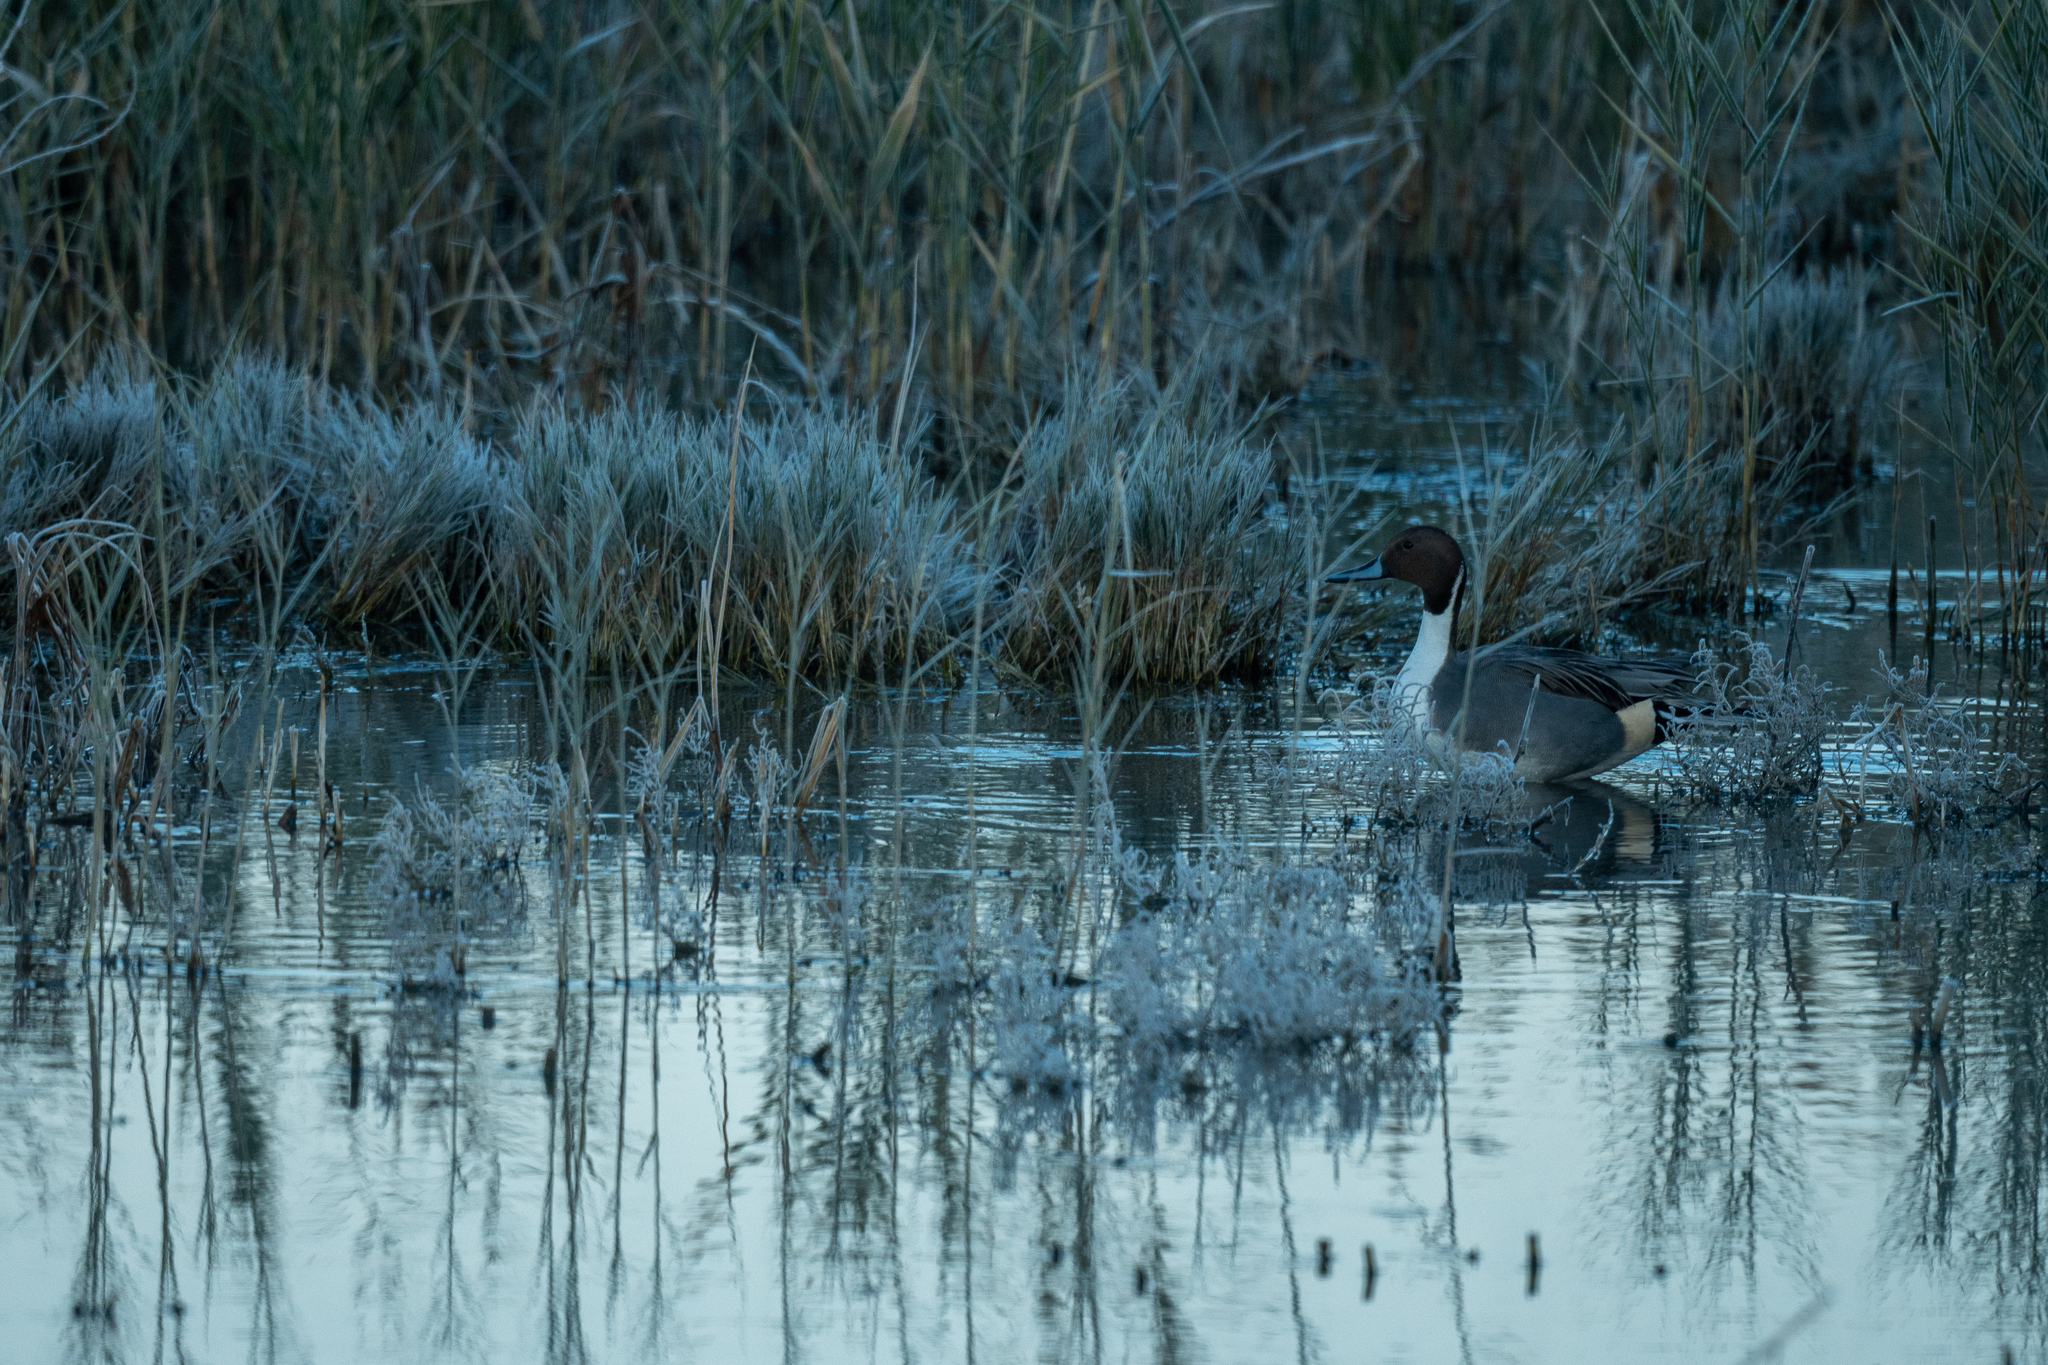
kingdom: Animalia
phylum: Chordata
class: Aves
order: Anseriformes
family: Anatidae
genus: Anas
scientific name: Anas acuta
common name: Northern pintail
